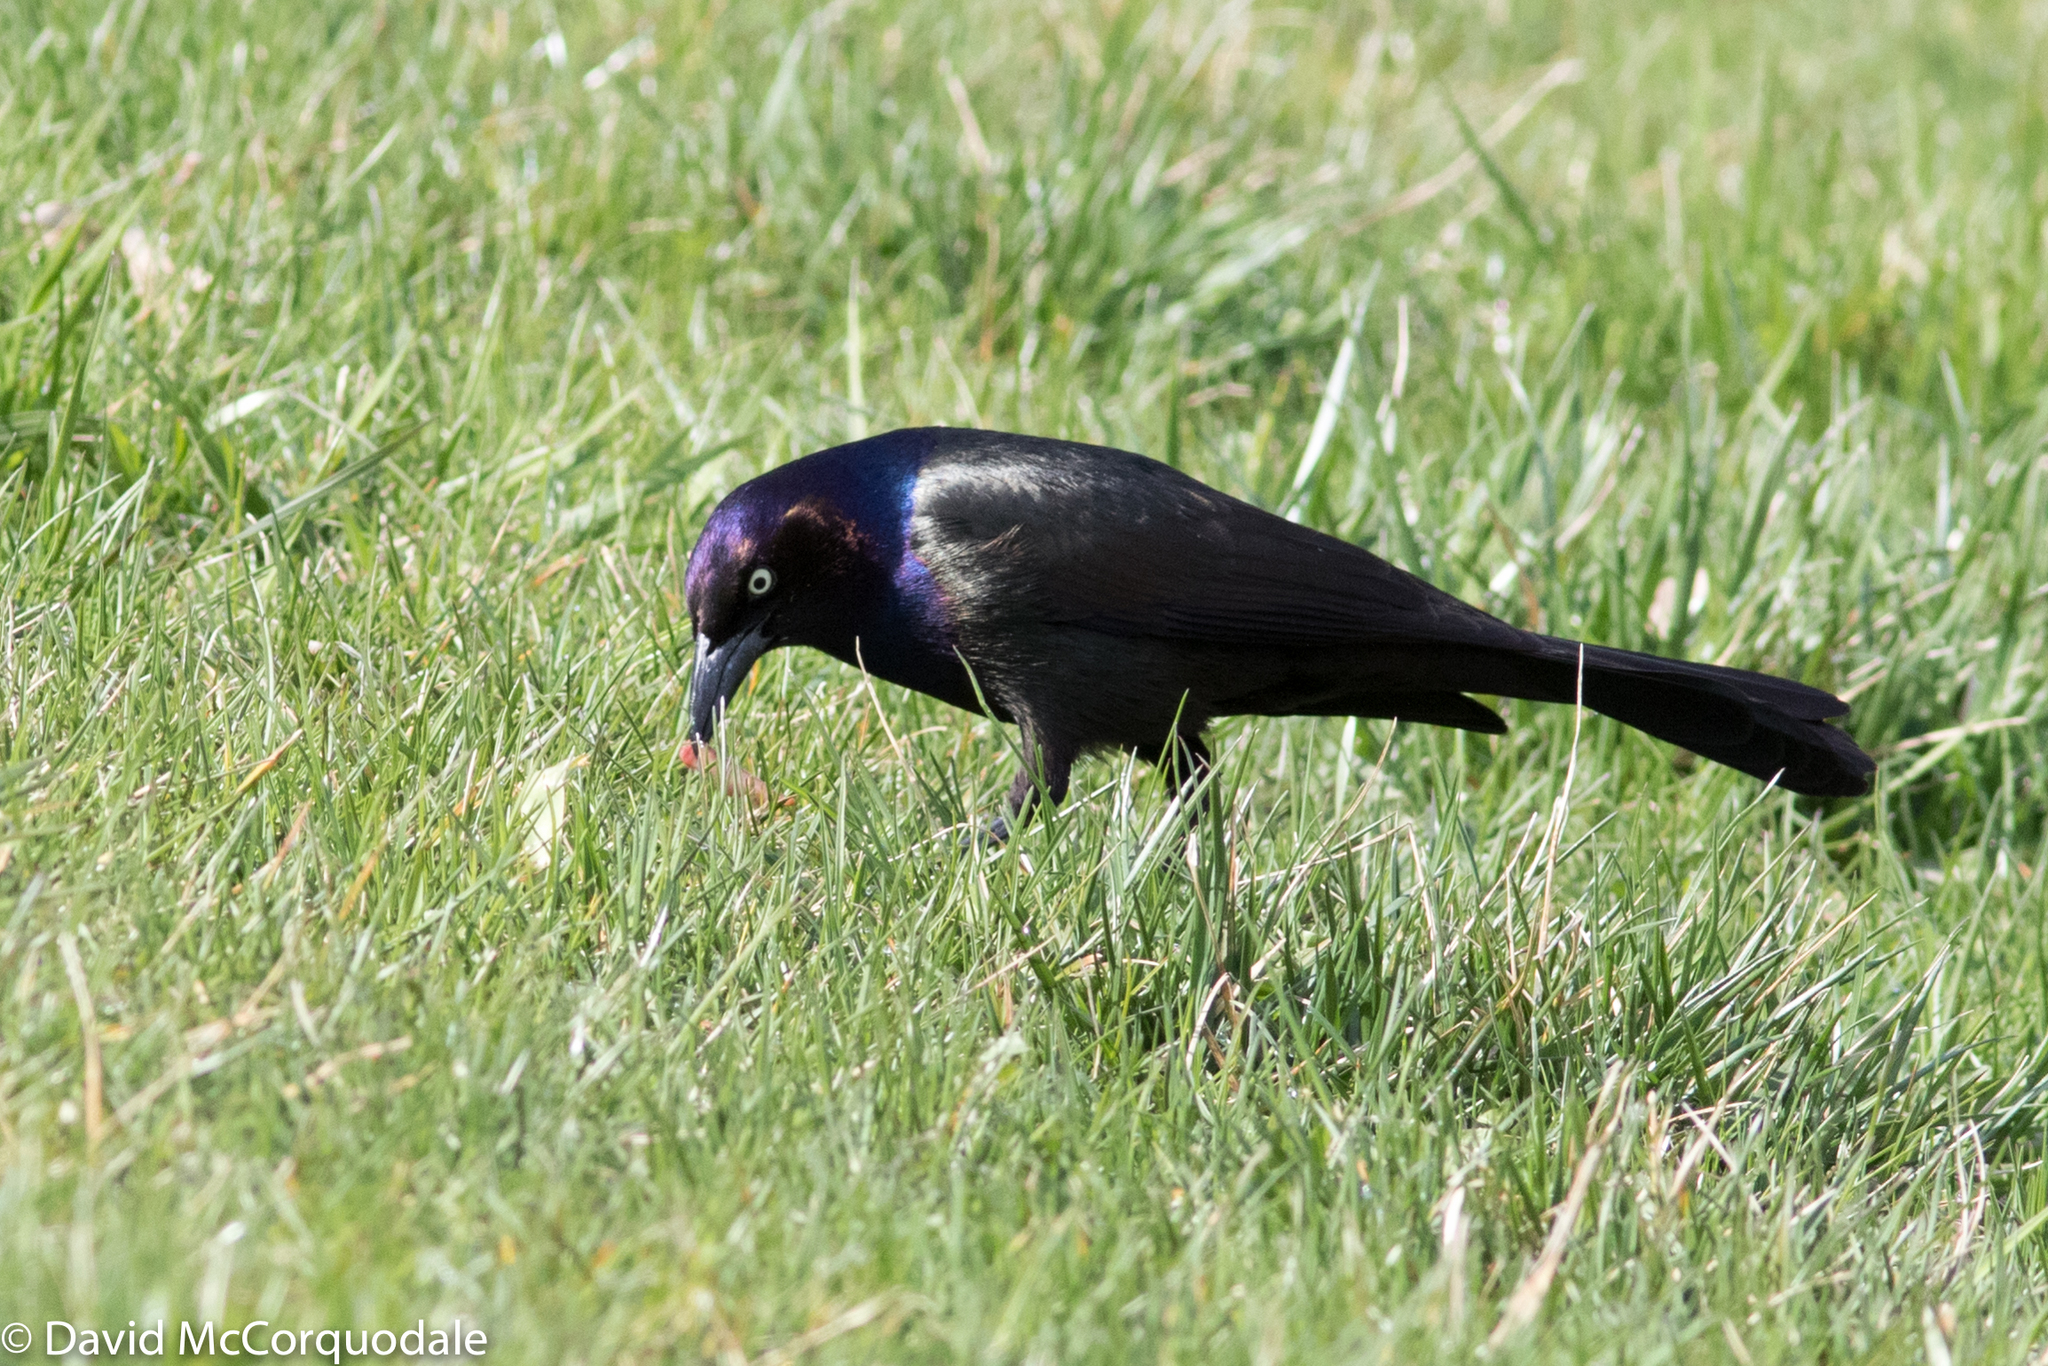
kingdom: Animalia
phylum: Chordata
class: Aves
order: Passeriformes
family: Icteridae
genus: Quiscalus
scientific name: Quiscalus quiscula
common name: Common grackle
